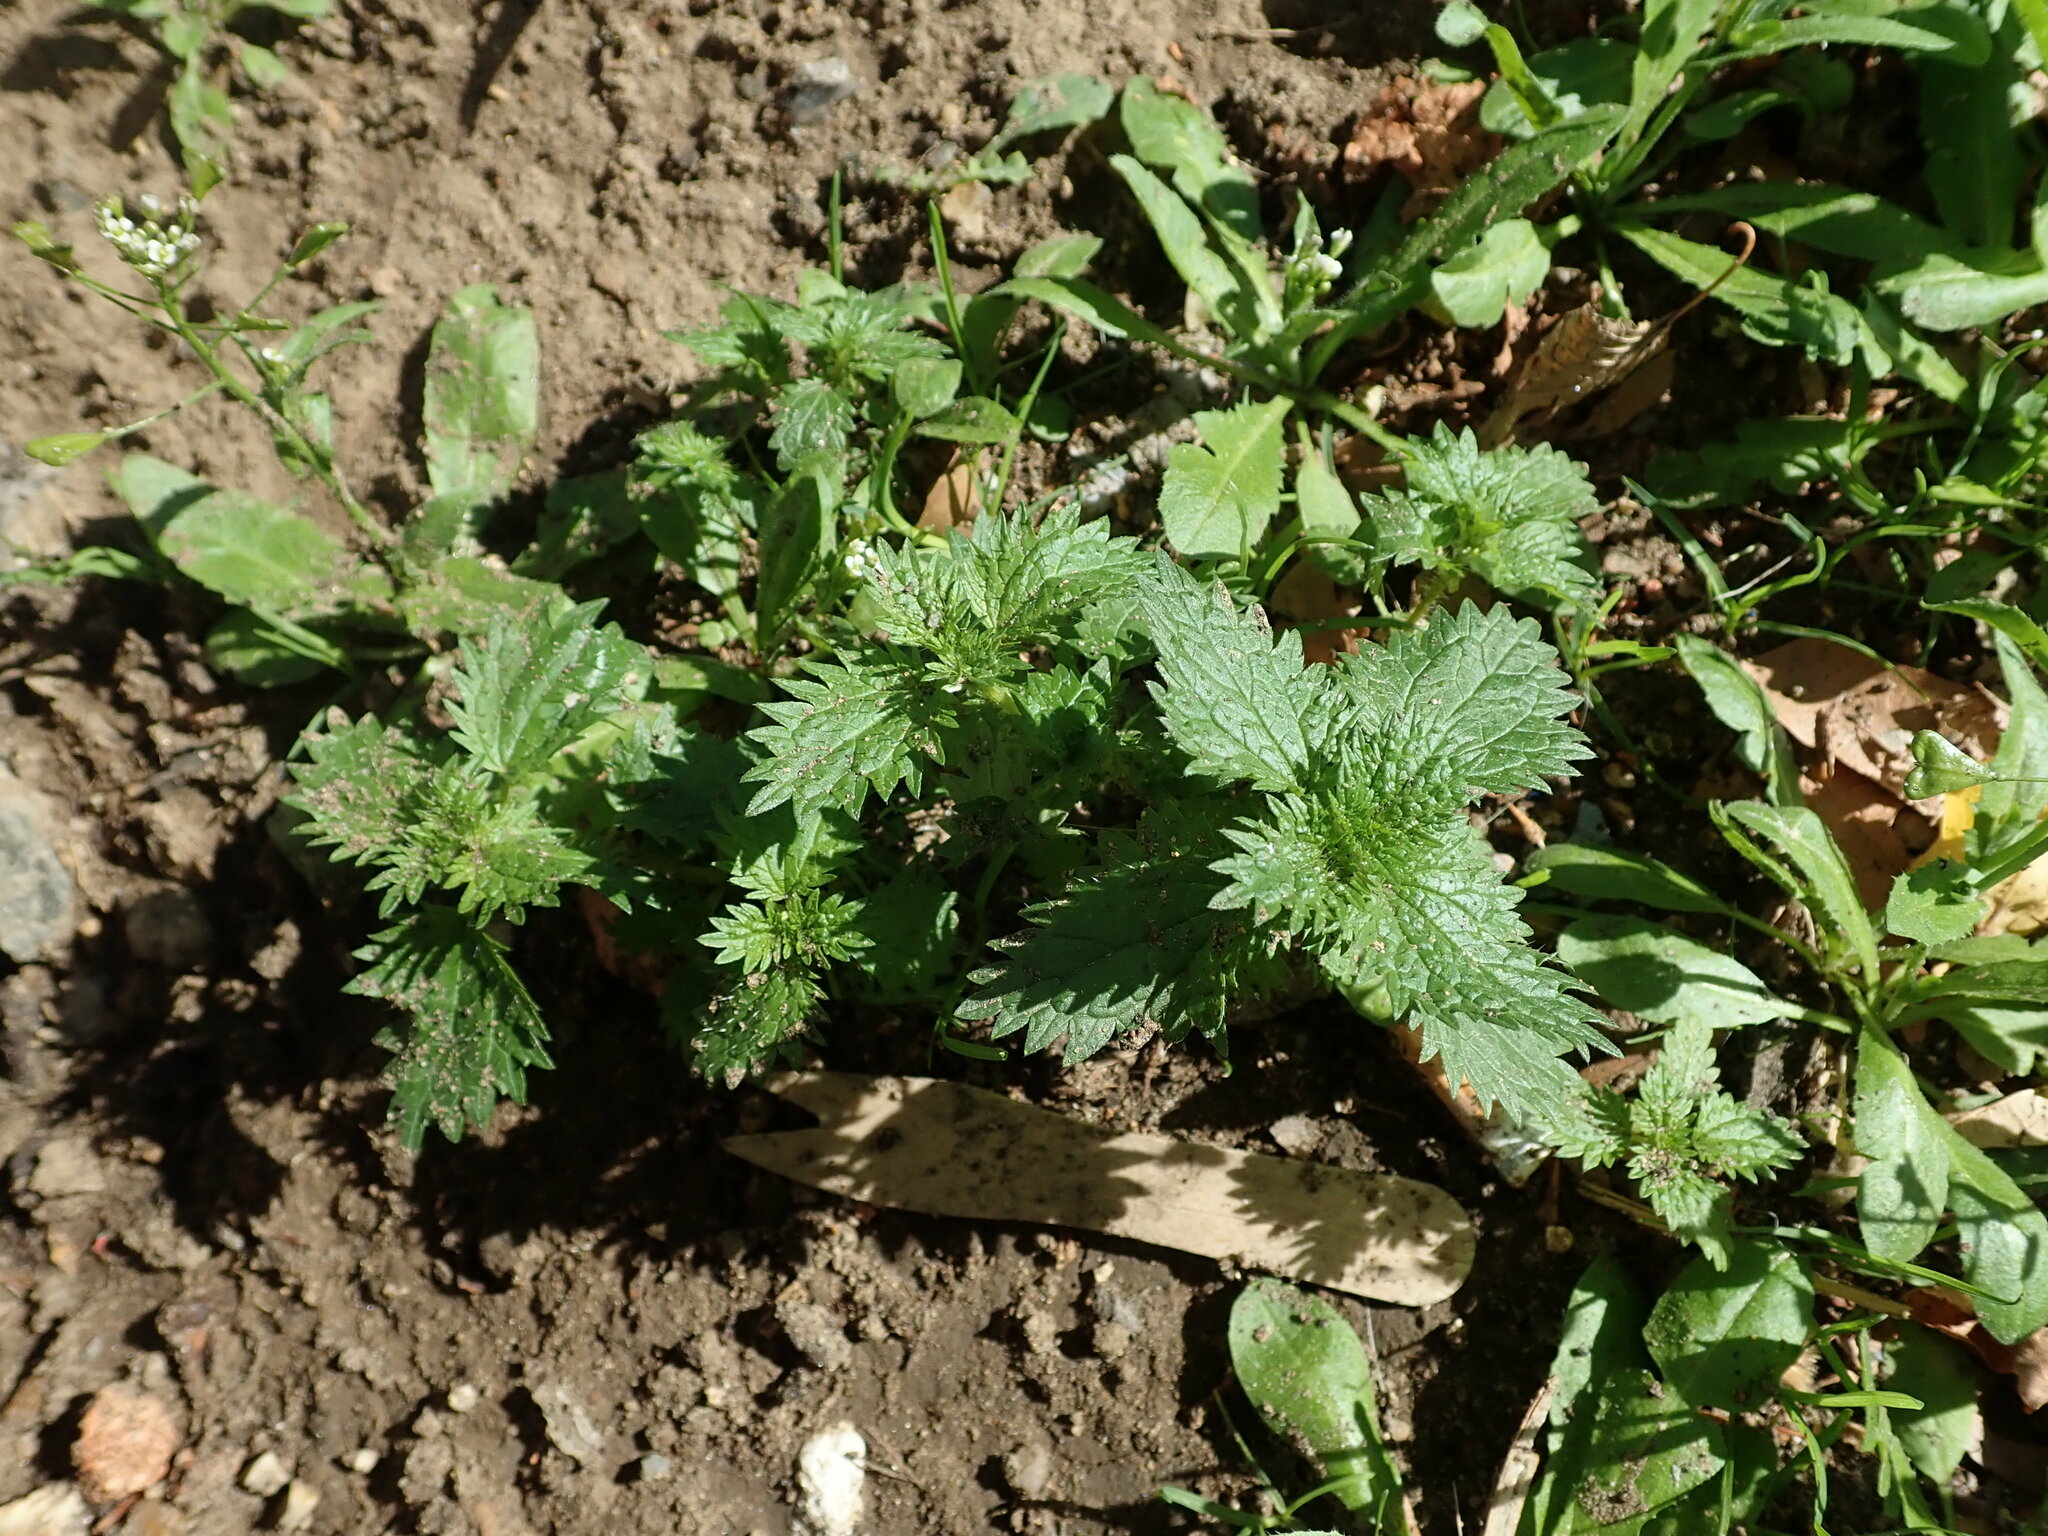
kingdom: Plantae
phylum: Tracheophyta
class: Magnoliopsida
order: Rosales
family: Urticaceae
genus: Urtica
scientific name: Urtica urens
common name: Dwarf nettle
